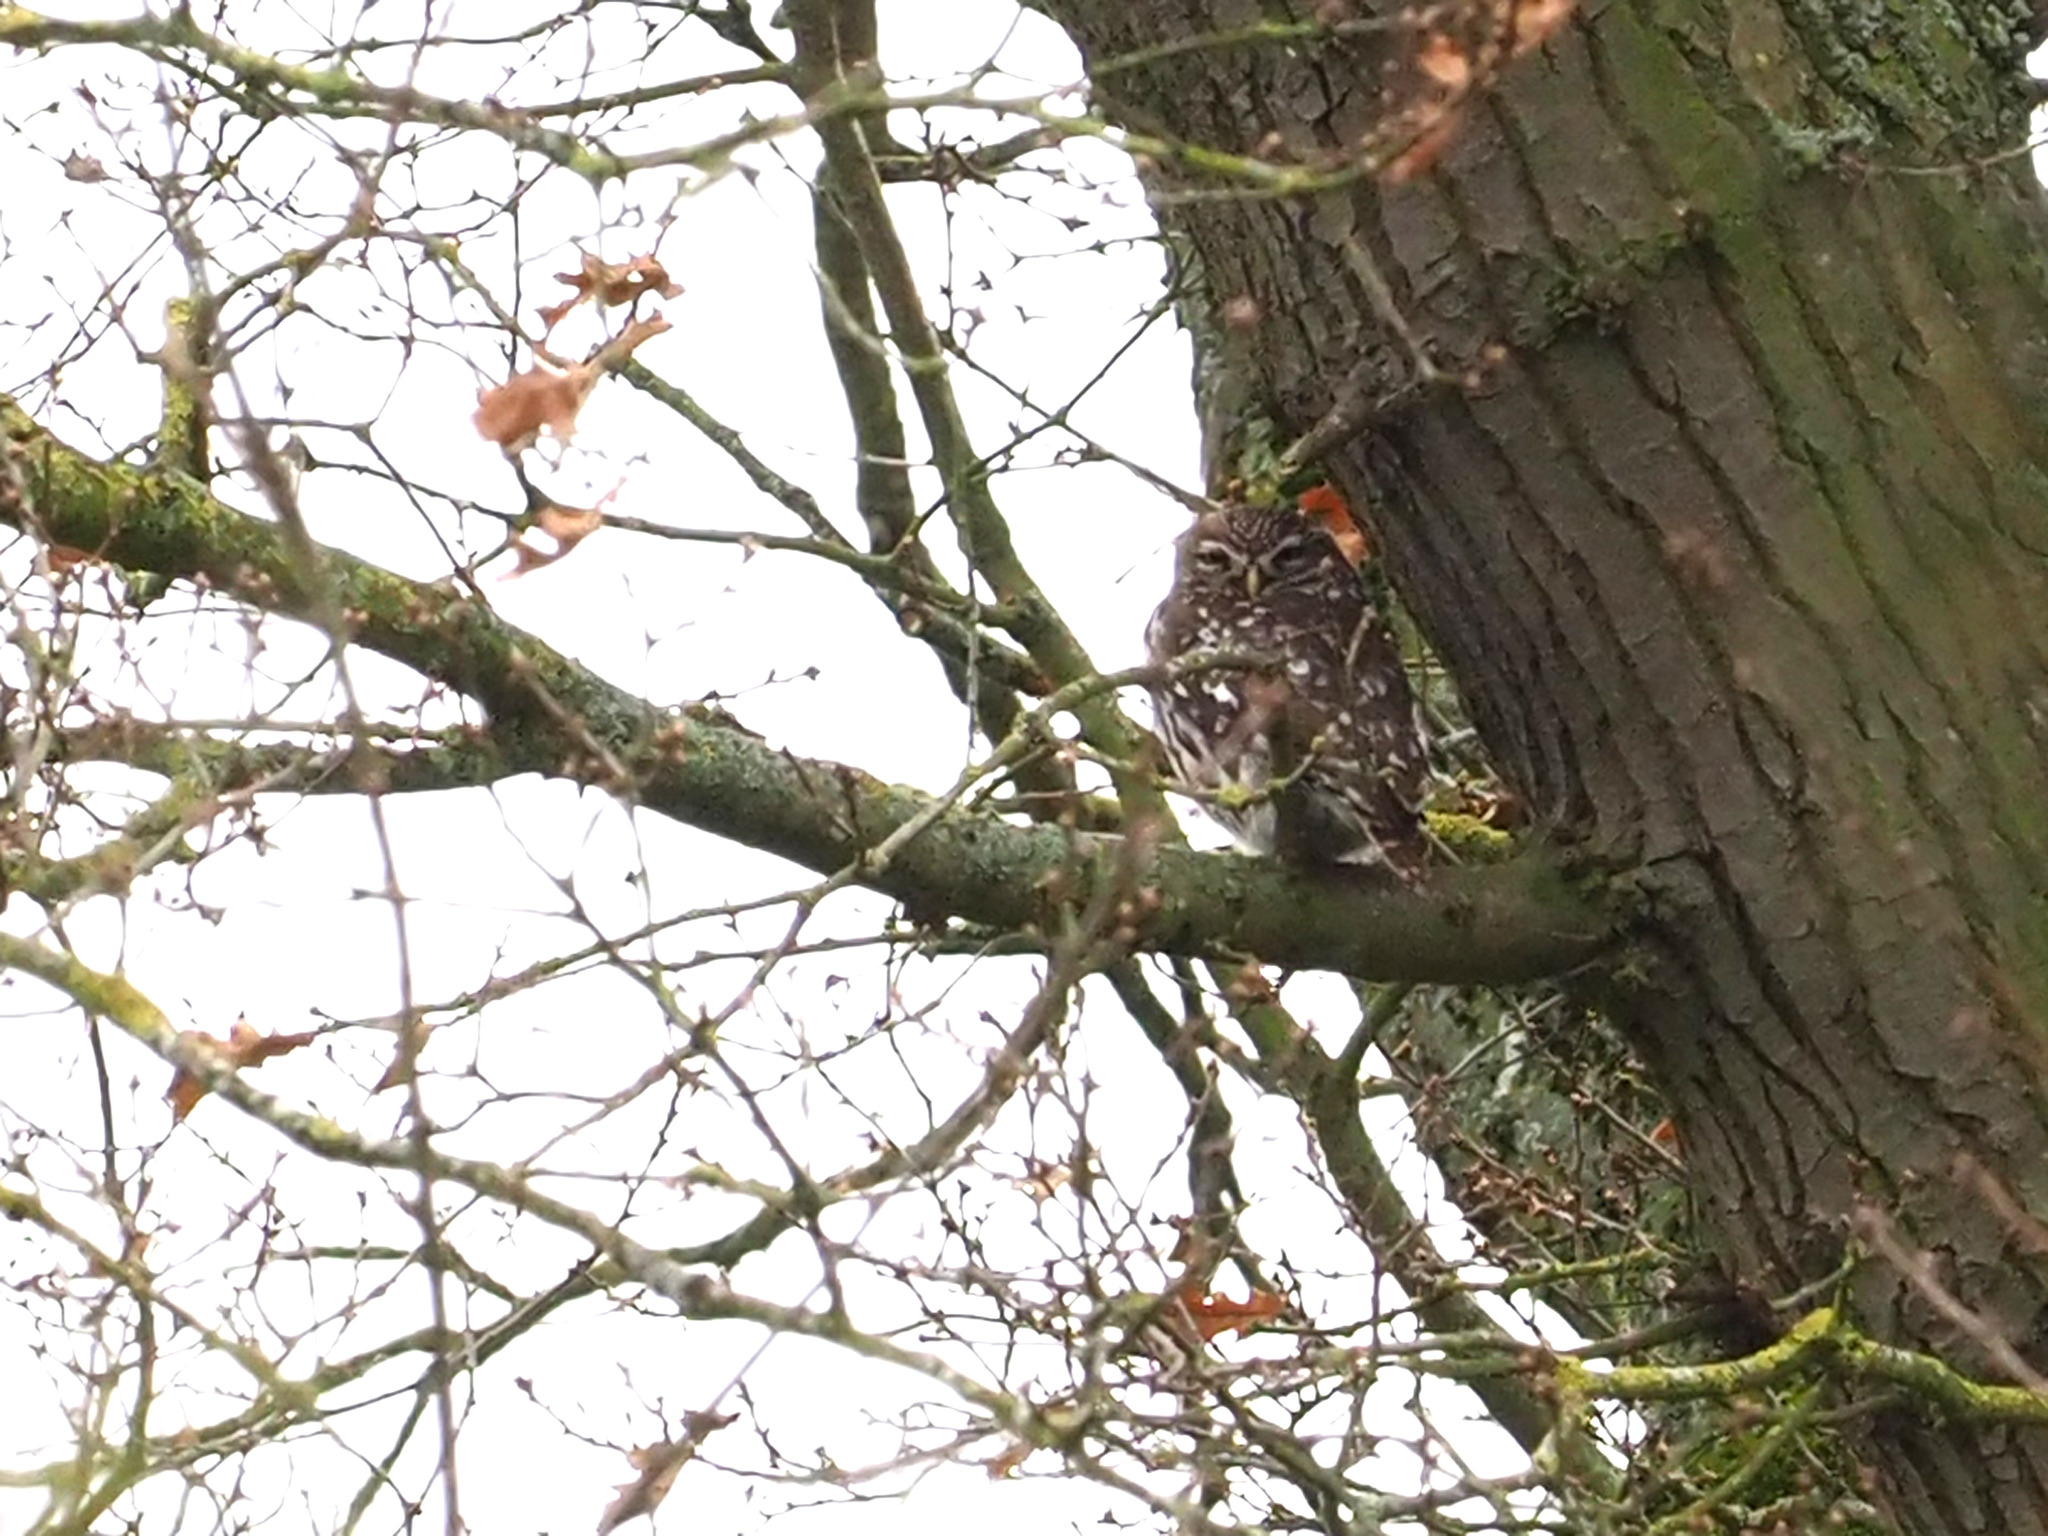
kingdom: Animalia
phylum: Chordata
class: Aves
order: Strigiformes
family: Strigidae
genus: Athene
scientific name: Athene noctua
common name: Little owl
